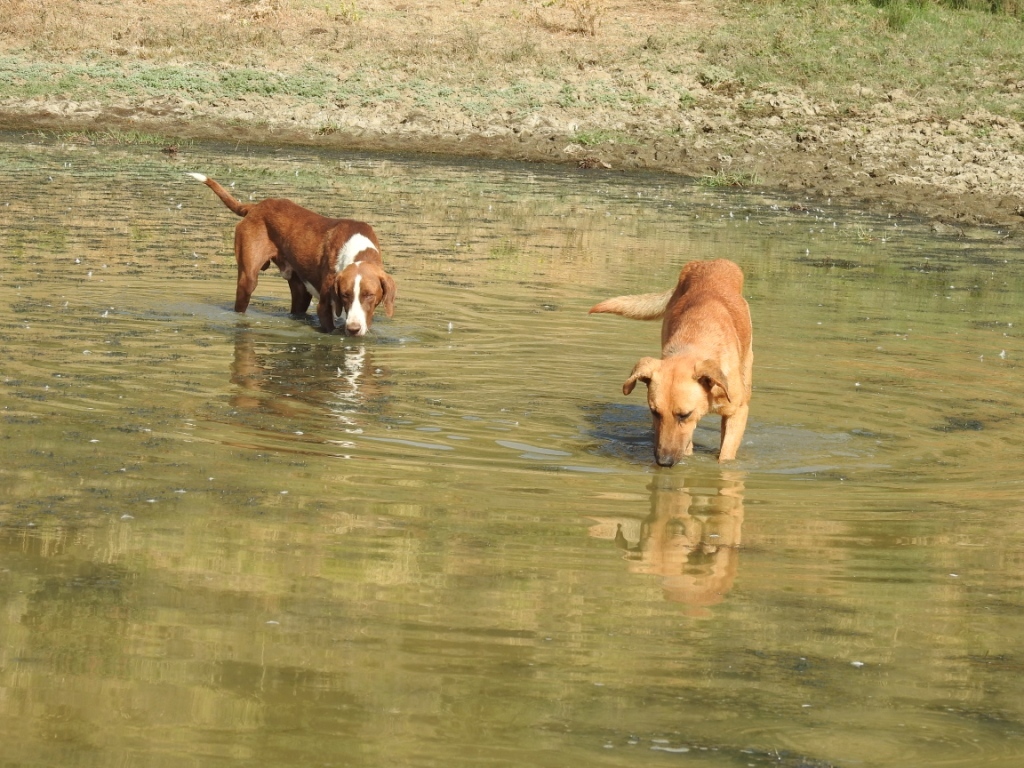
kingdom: Animalia
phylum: Chordata
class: Mammalia
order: Carnivora
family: Canidae
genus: Canis
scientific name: Canis lupus
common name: Gray wolf
